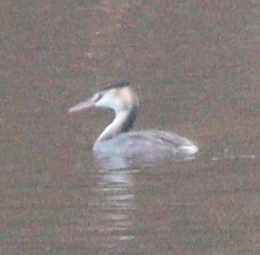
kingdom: Animalia
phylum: Chordata
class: Aves
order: Podicipediformes
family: Podicipedidae
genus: Podiceps
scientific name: Podiceps cristatus
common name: Great crested grebe
